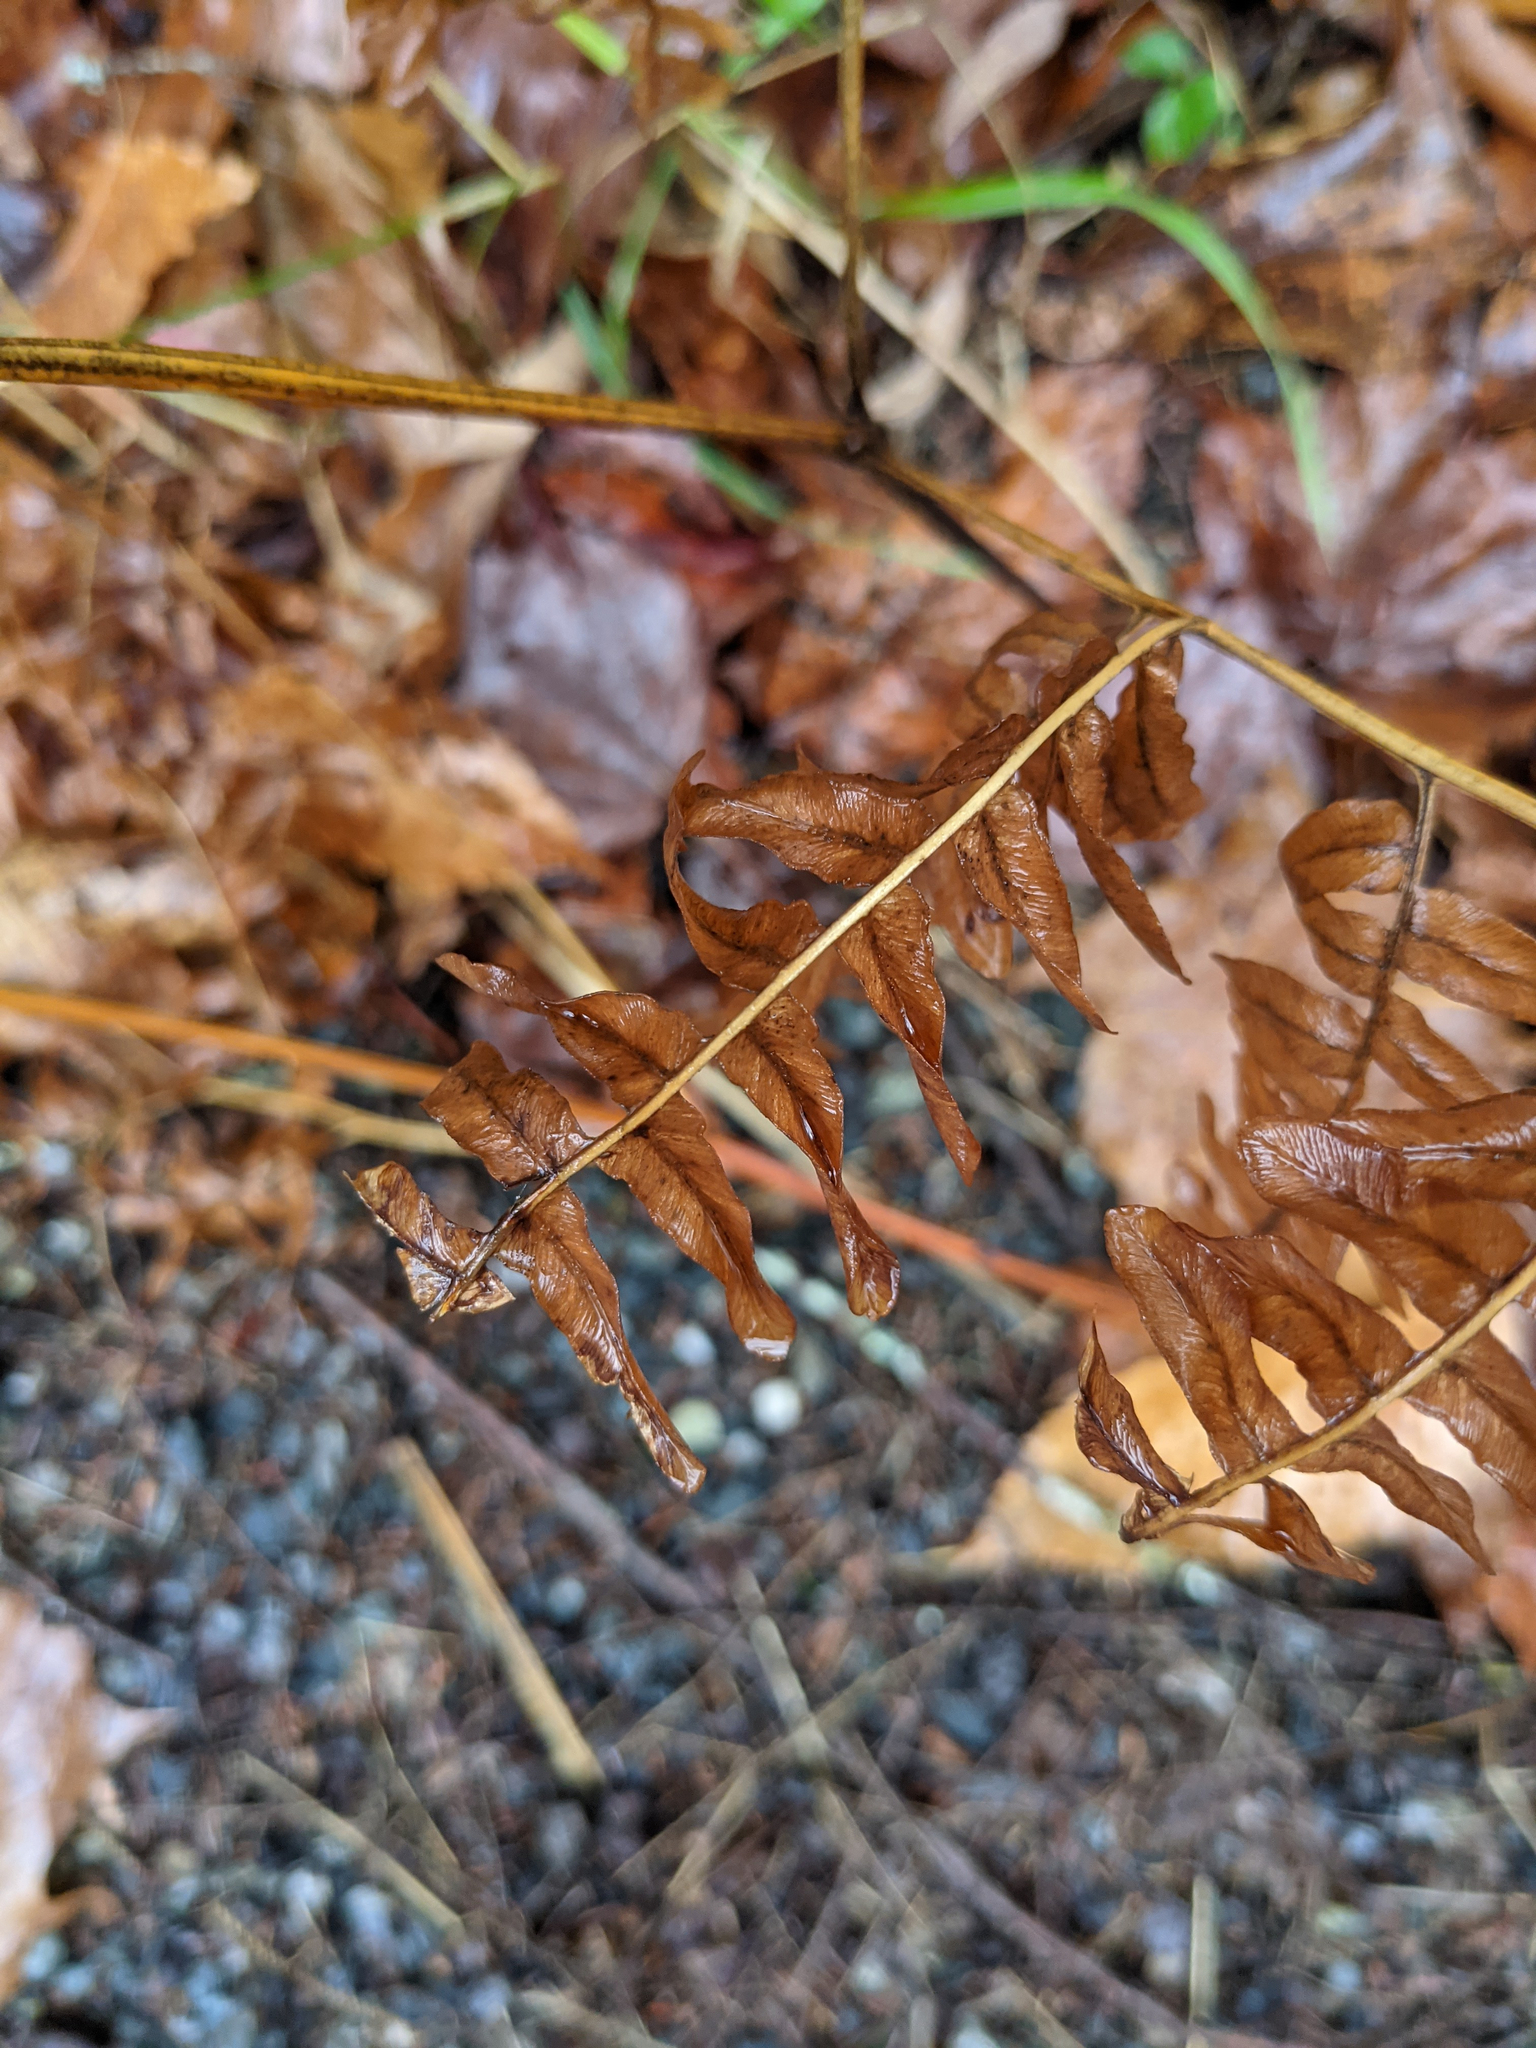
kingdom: Plantae
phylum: Tracheophyta
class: Polypodiopsida
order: Polypodiales
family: Dennstaedtiaceae
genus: Pteridium
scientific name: Pteridium aquilinum
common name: Bracken
